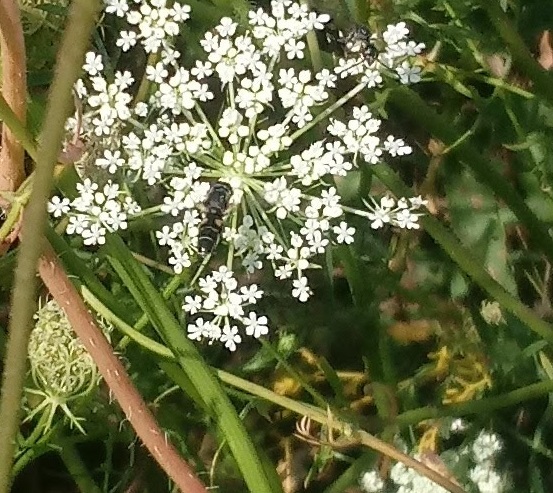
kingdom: Animalia
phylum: Arthropoda
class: Insecta
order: Diptera
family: Syrphidae
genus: Syritta
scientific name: Syritta pipiens
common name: Hover fly
